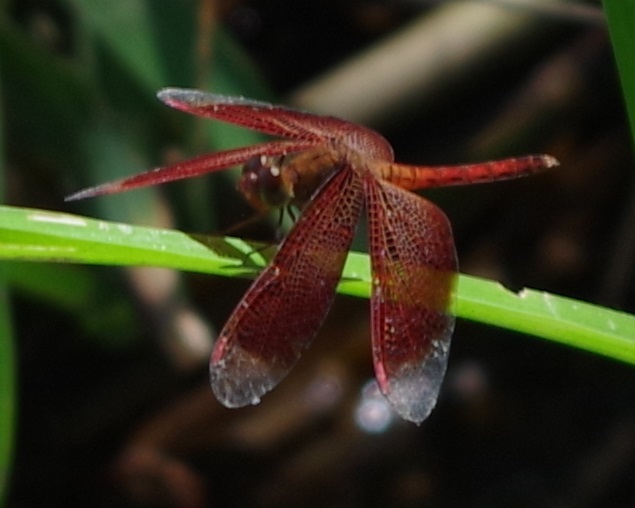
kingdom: Animalia
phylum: Arthropoda
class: Insecta
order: Odonata
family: Libellulidae
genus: Neurothemis
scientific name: Neurothemis fluctuans
